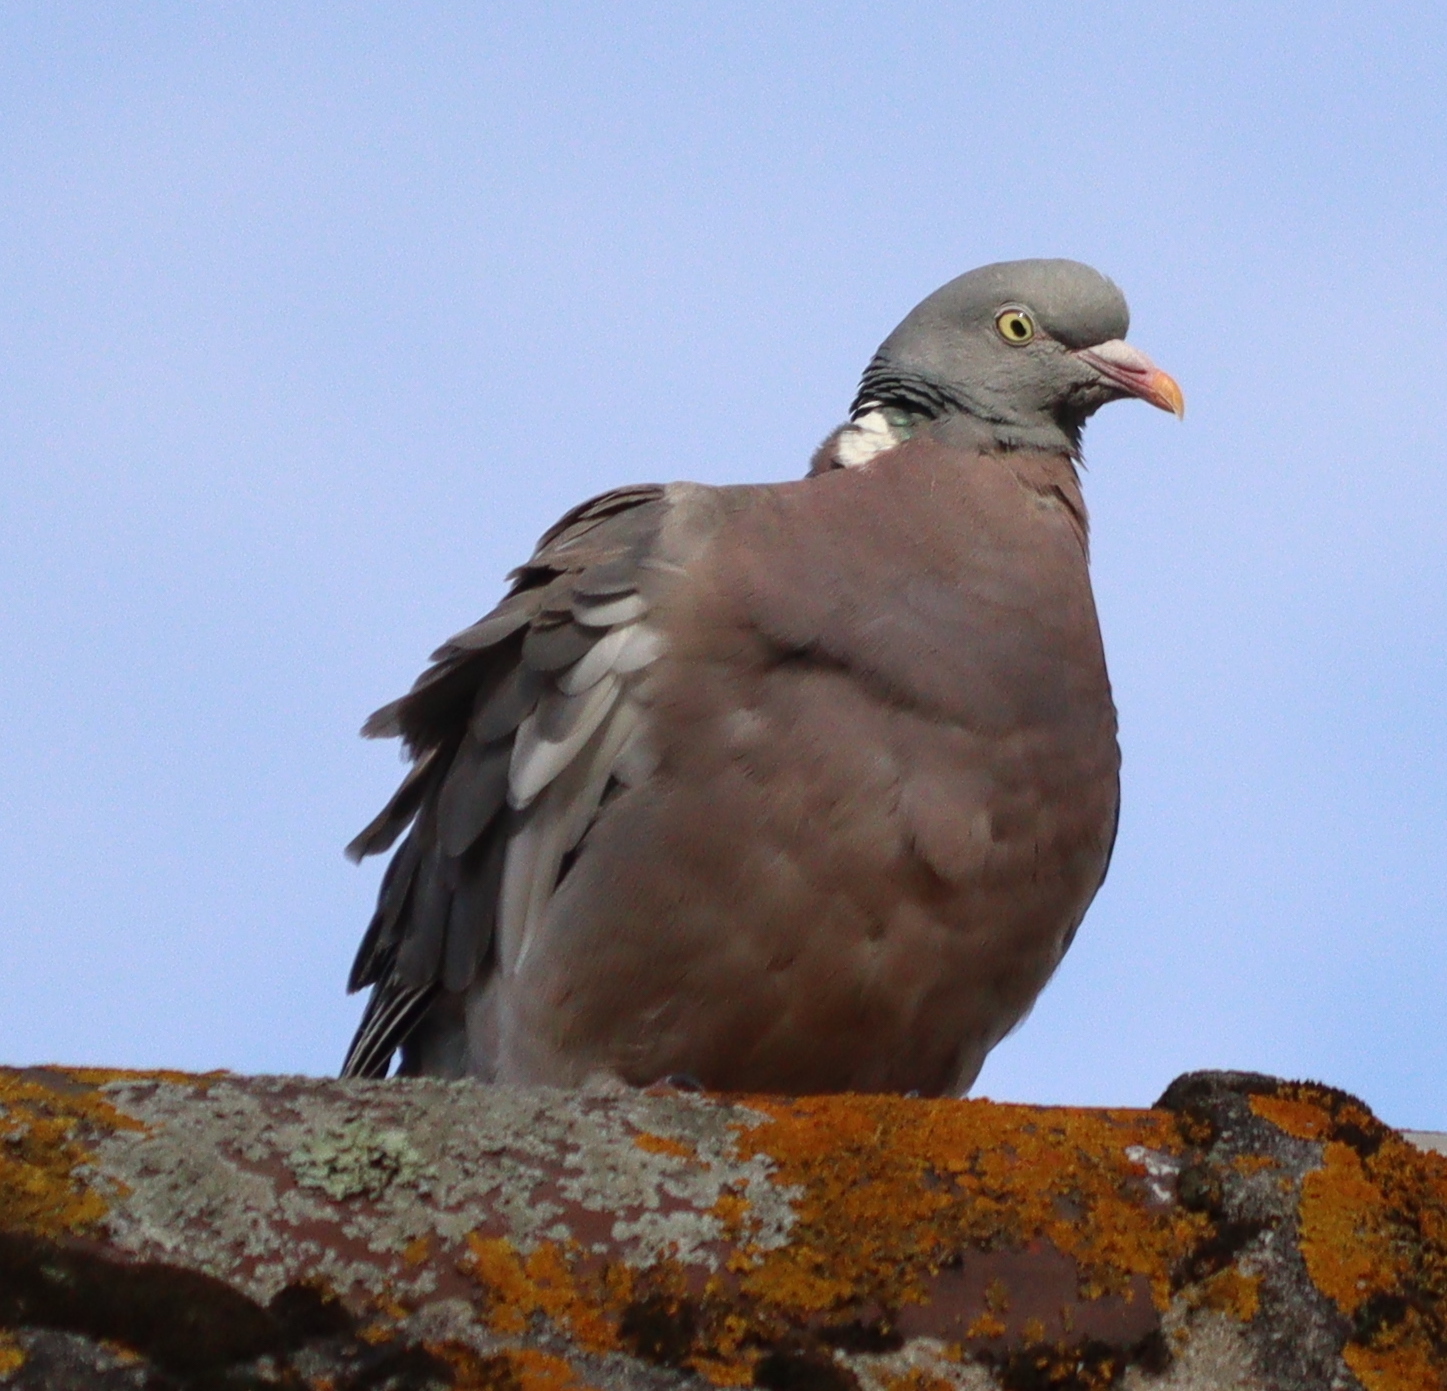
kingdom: Animalia
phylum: Chordata
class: Aves
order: Columbiformes
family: Columbidae
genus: Columba
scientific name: Columba palumbus
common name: Common wood pigeon
